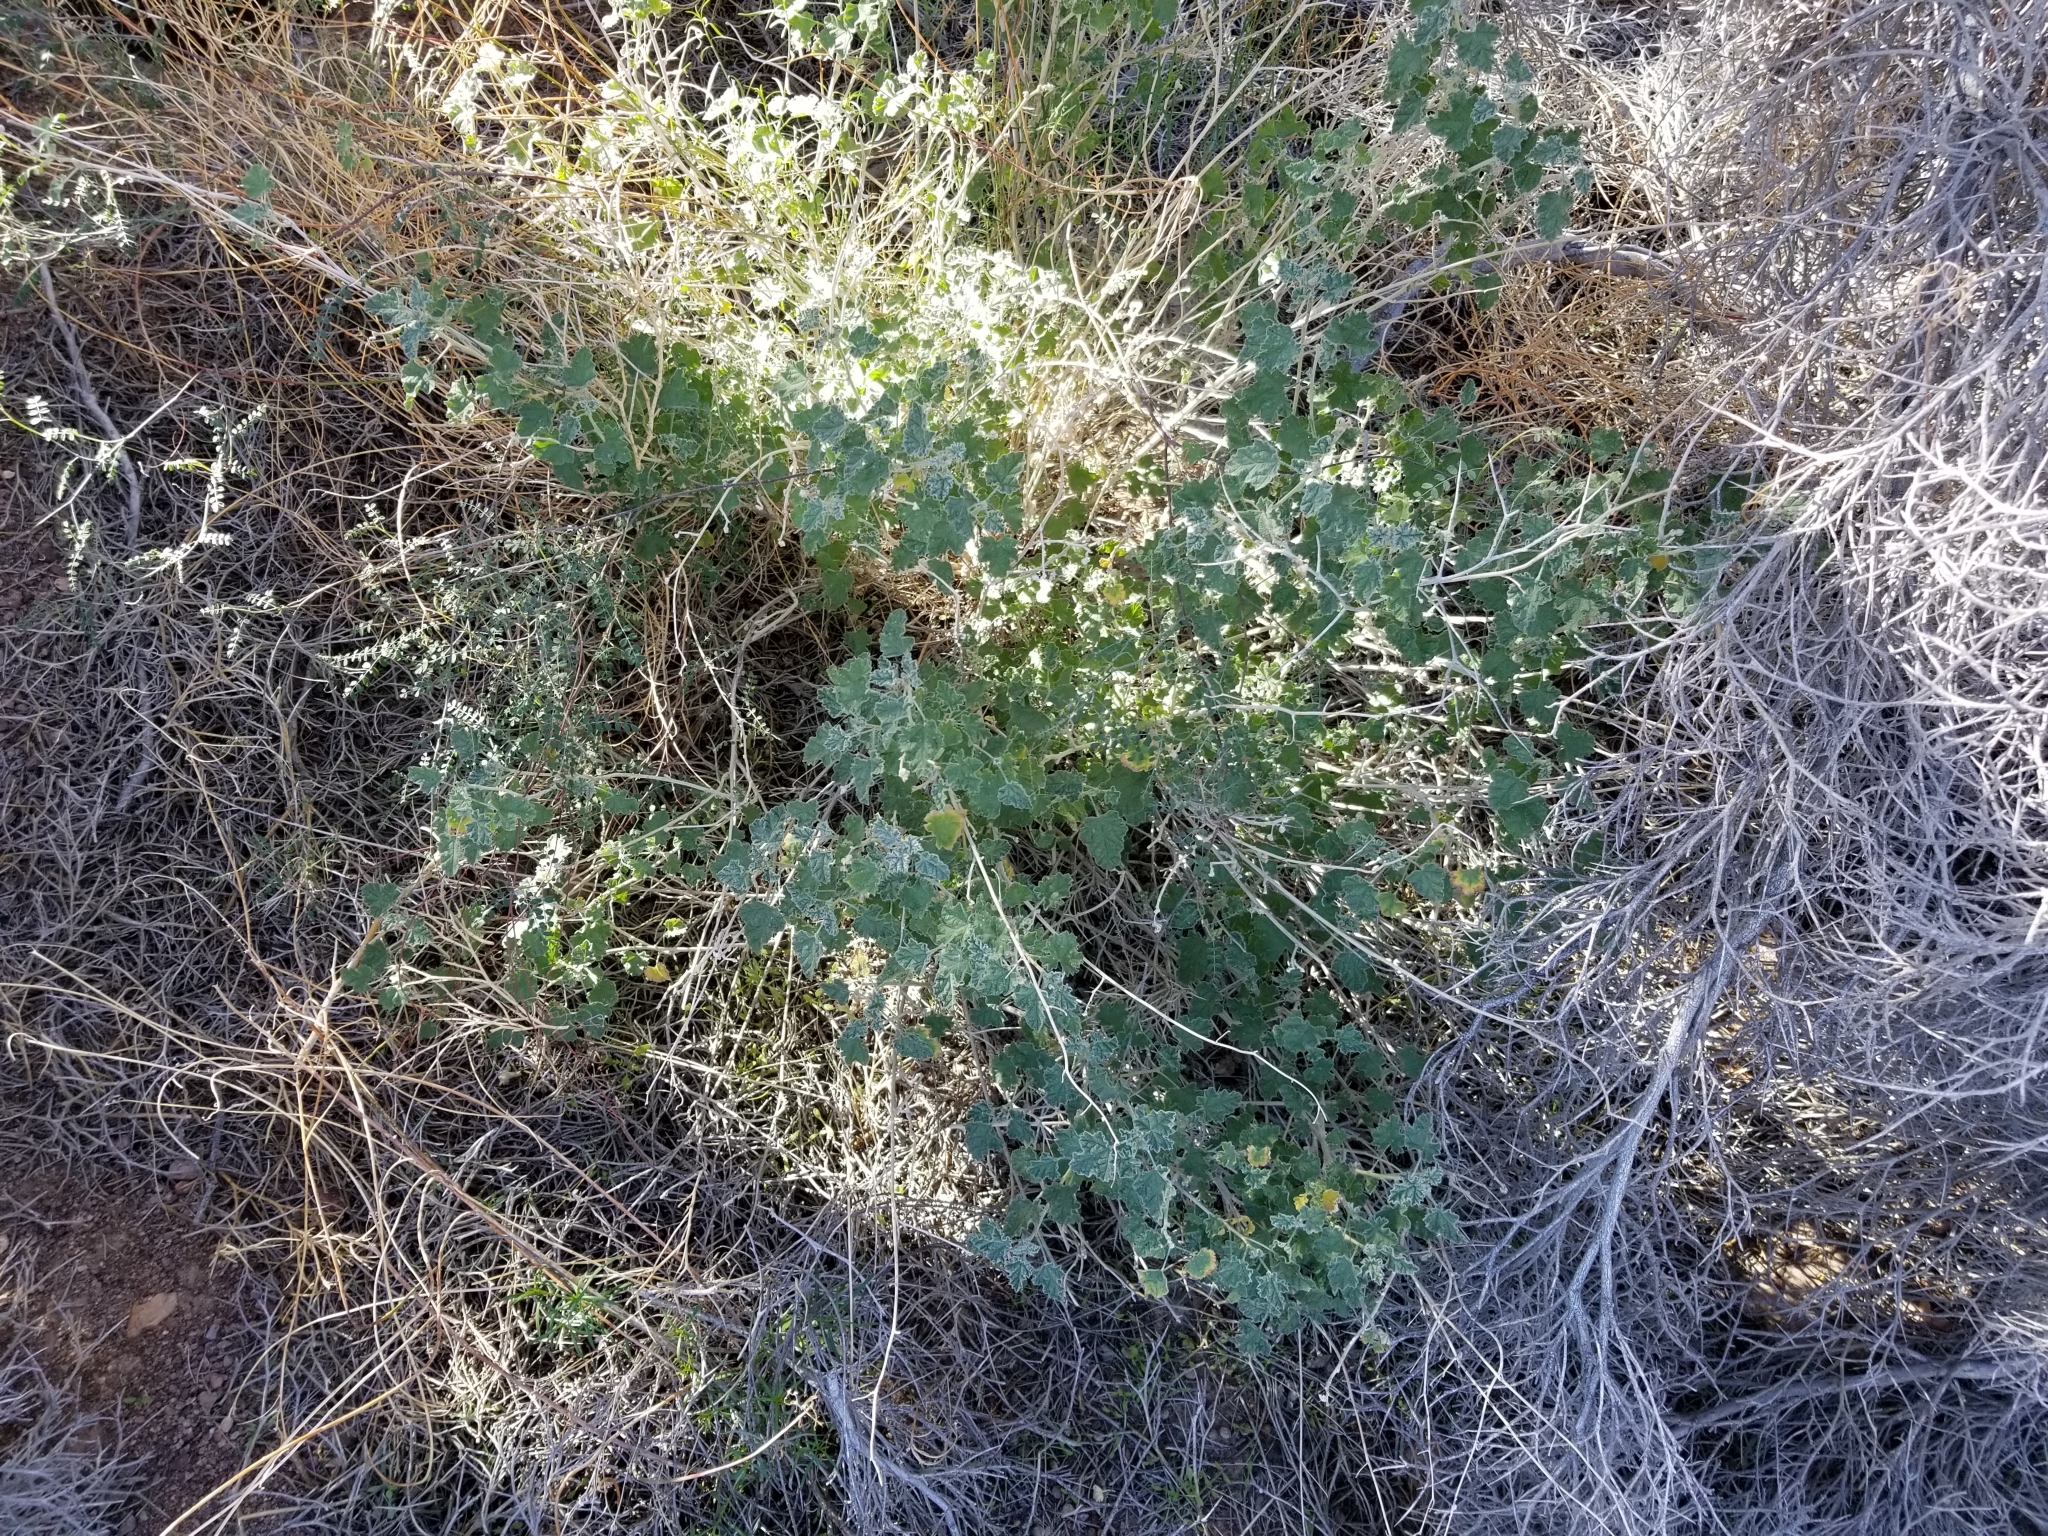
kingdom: Plantae
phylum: Tracheophyta
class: Magnoliopsida
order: Malvales
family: Malvaceae
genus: Sphaeralcea
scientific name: Sphaeralcea ambigua
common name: Apricot globe-mallow
